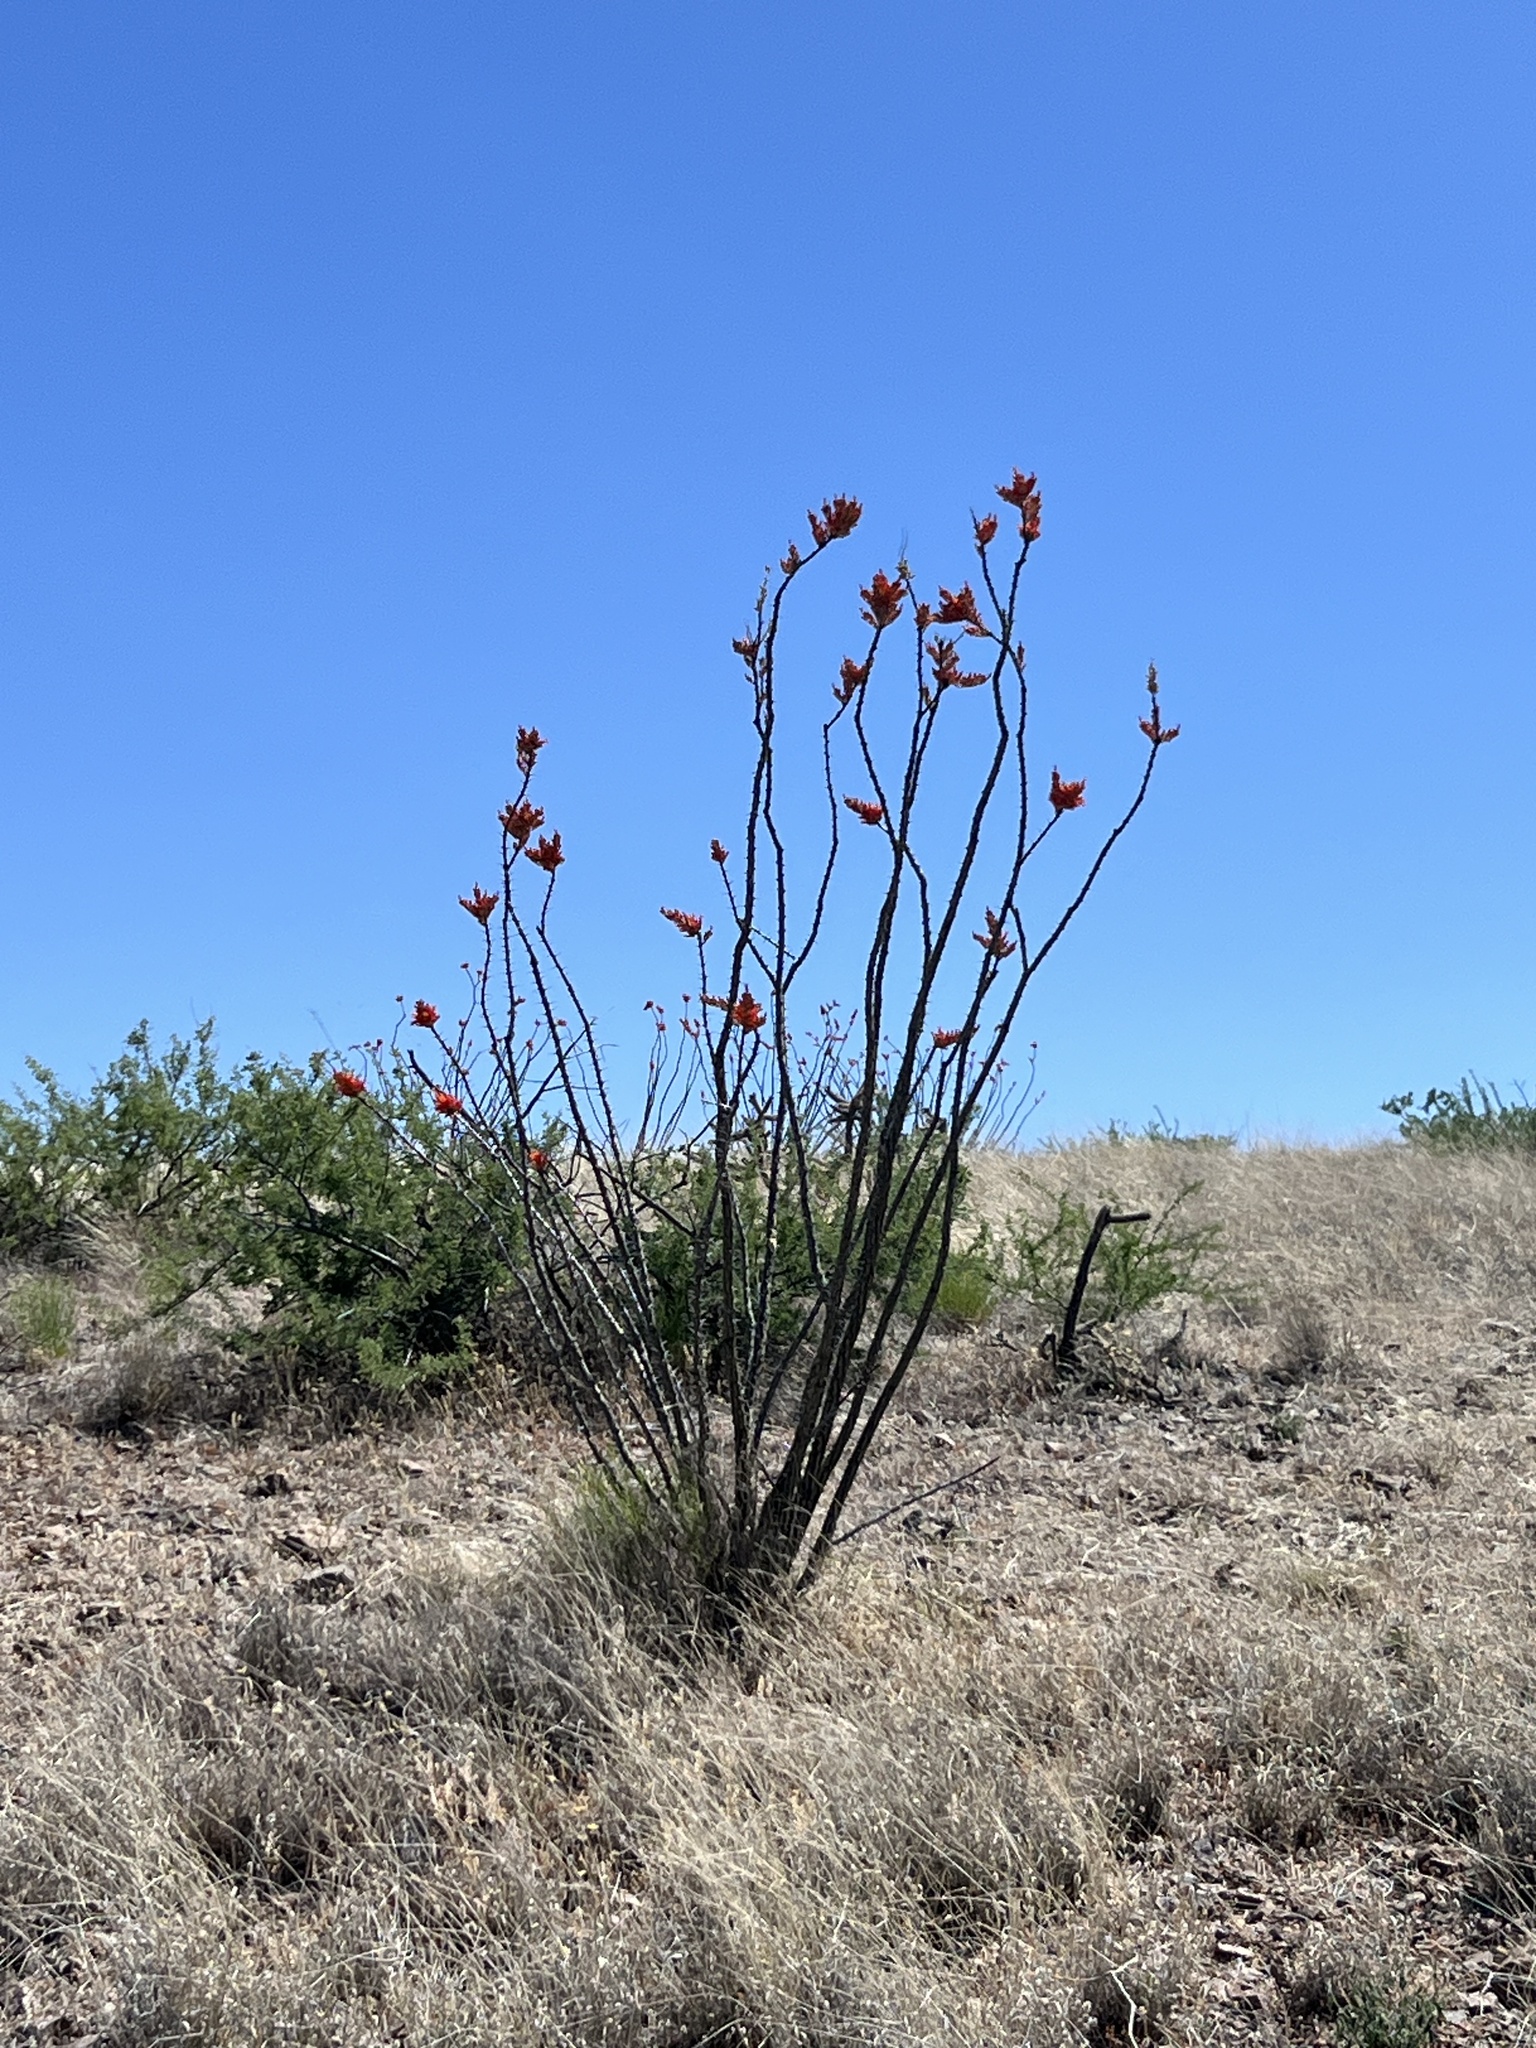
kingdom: Plantae
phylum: Tracheophyta
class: Magnoliopsida
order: Ericales
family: Fouquieriaceae
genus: Fouquieria
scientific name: Fouquieria splendens
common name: Vine-cactus
